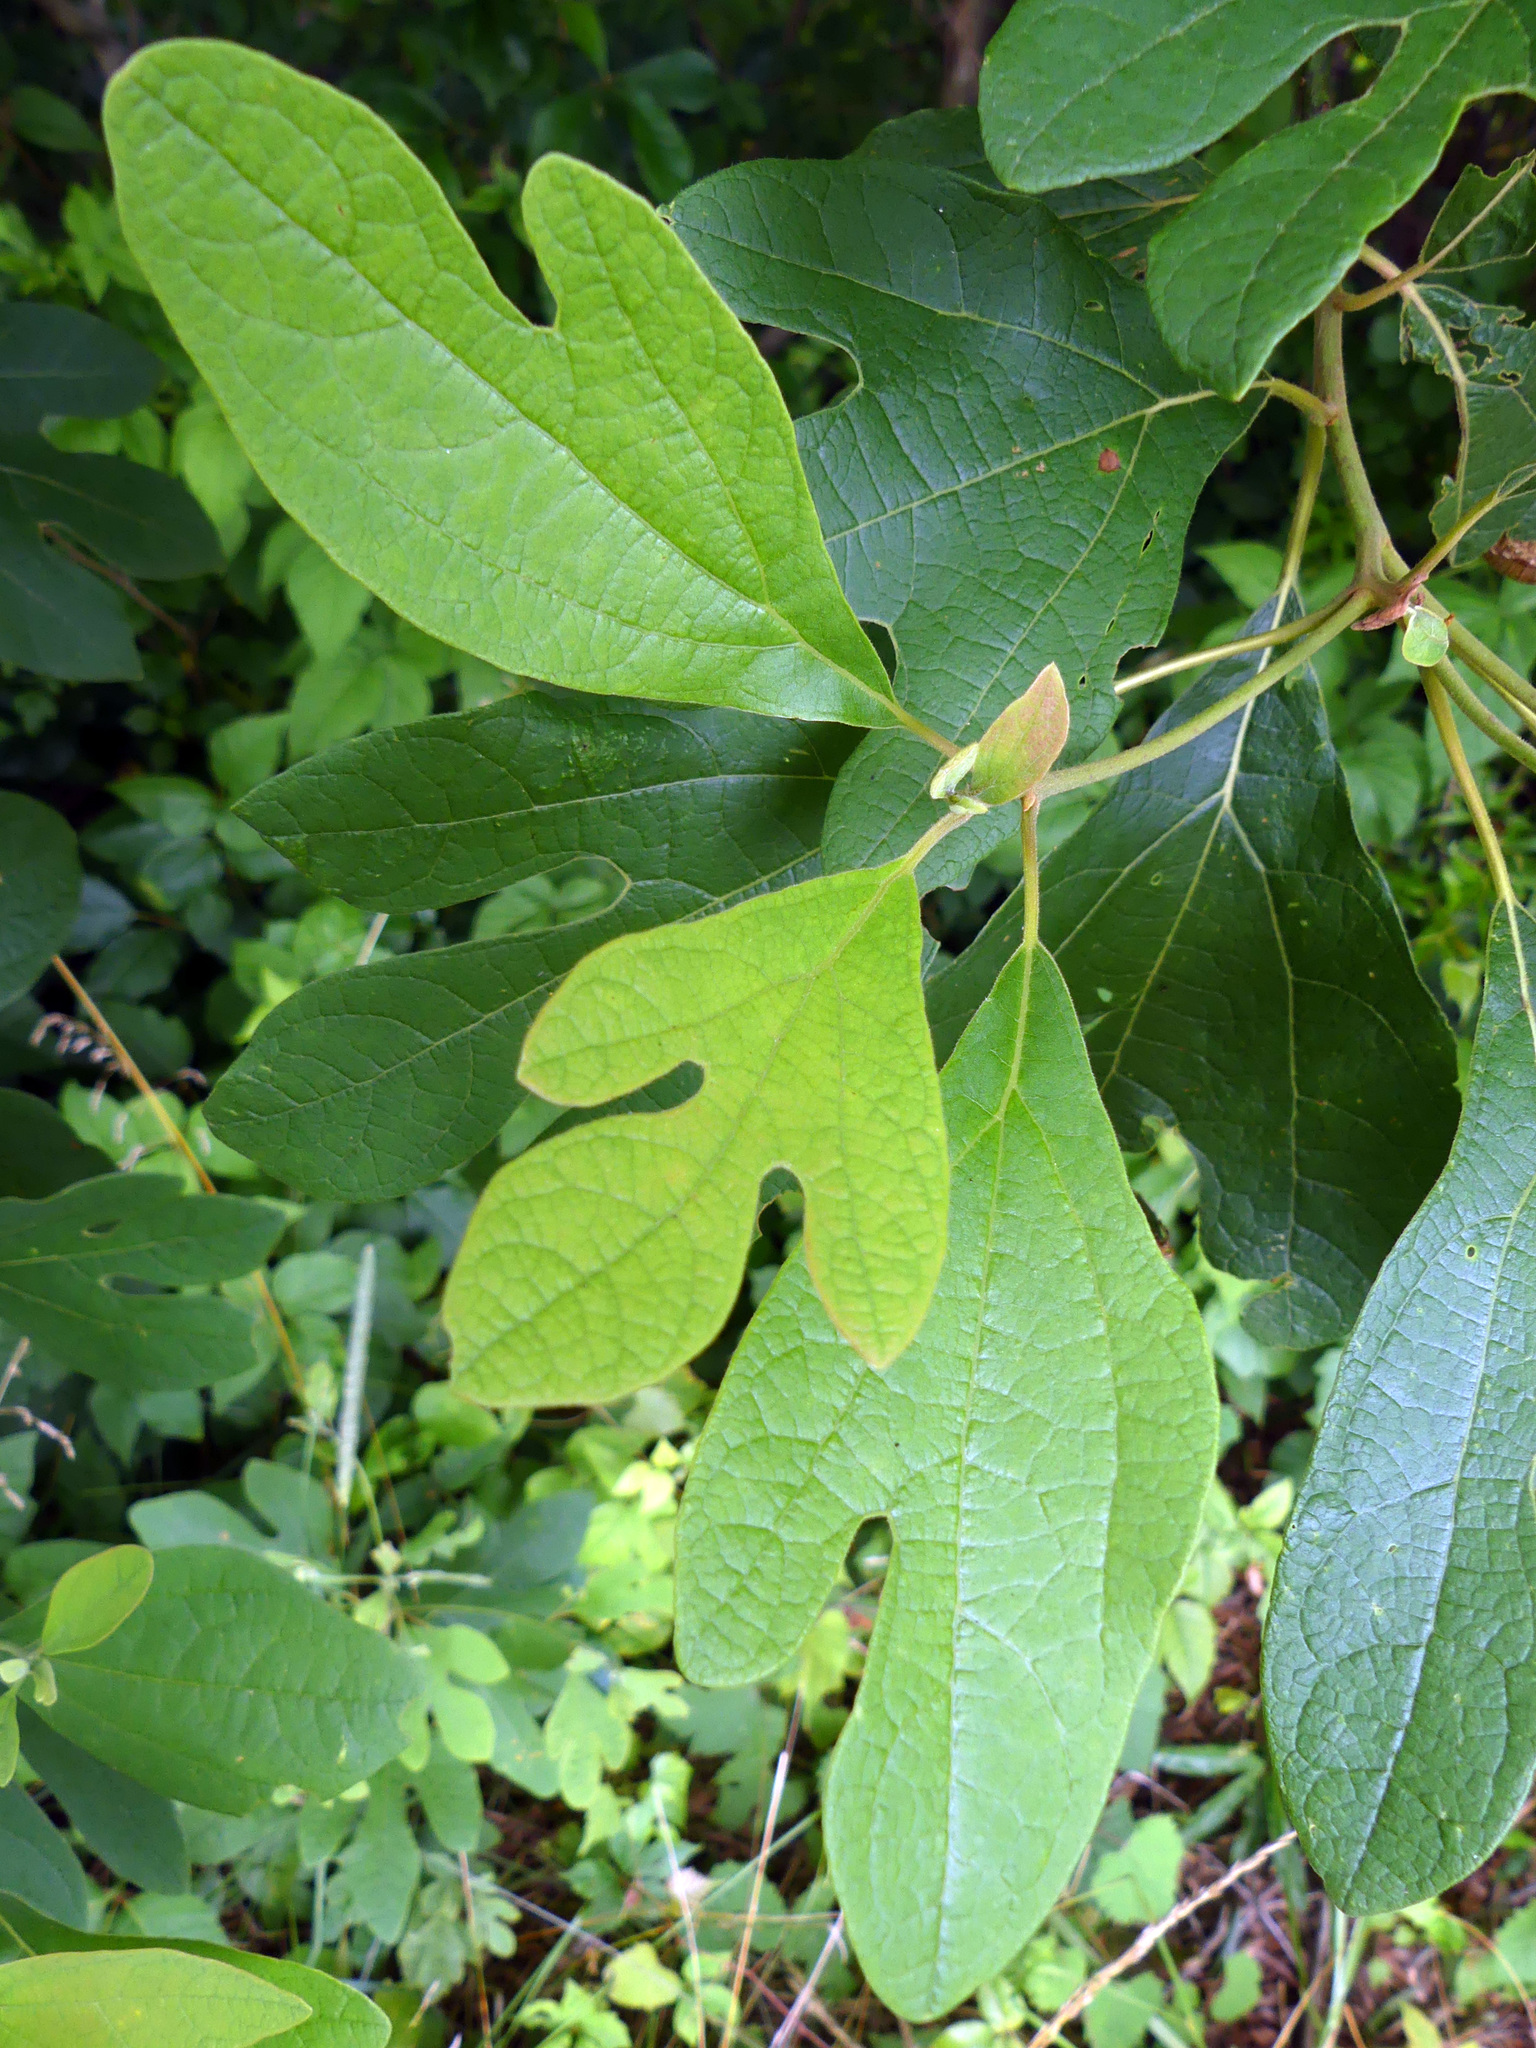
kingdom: Plantae
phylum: Tracheophyta
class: Magnoliopsida
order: Laurales
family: Lauraceae
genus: Sassafras
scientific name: Sassafras albidum
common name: Sassafras
